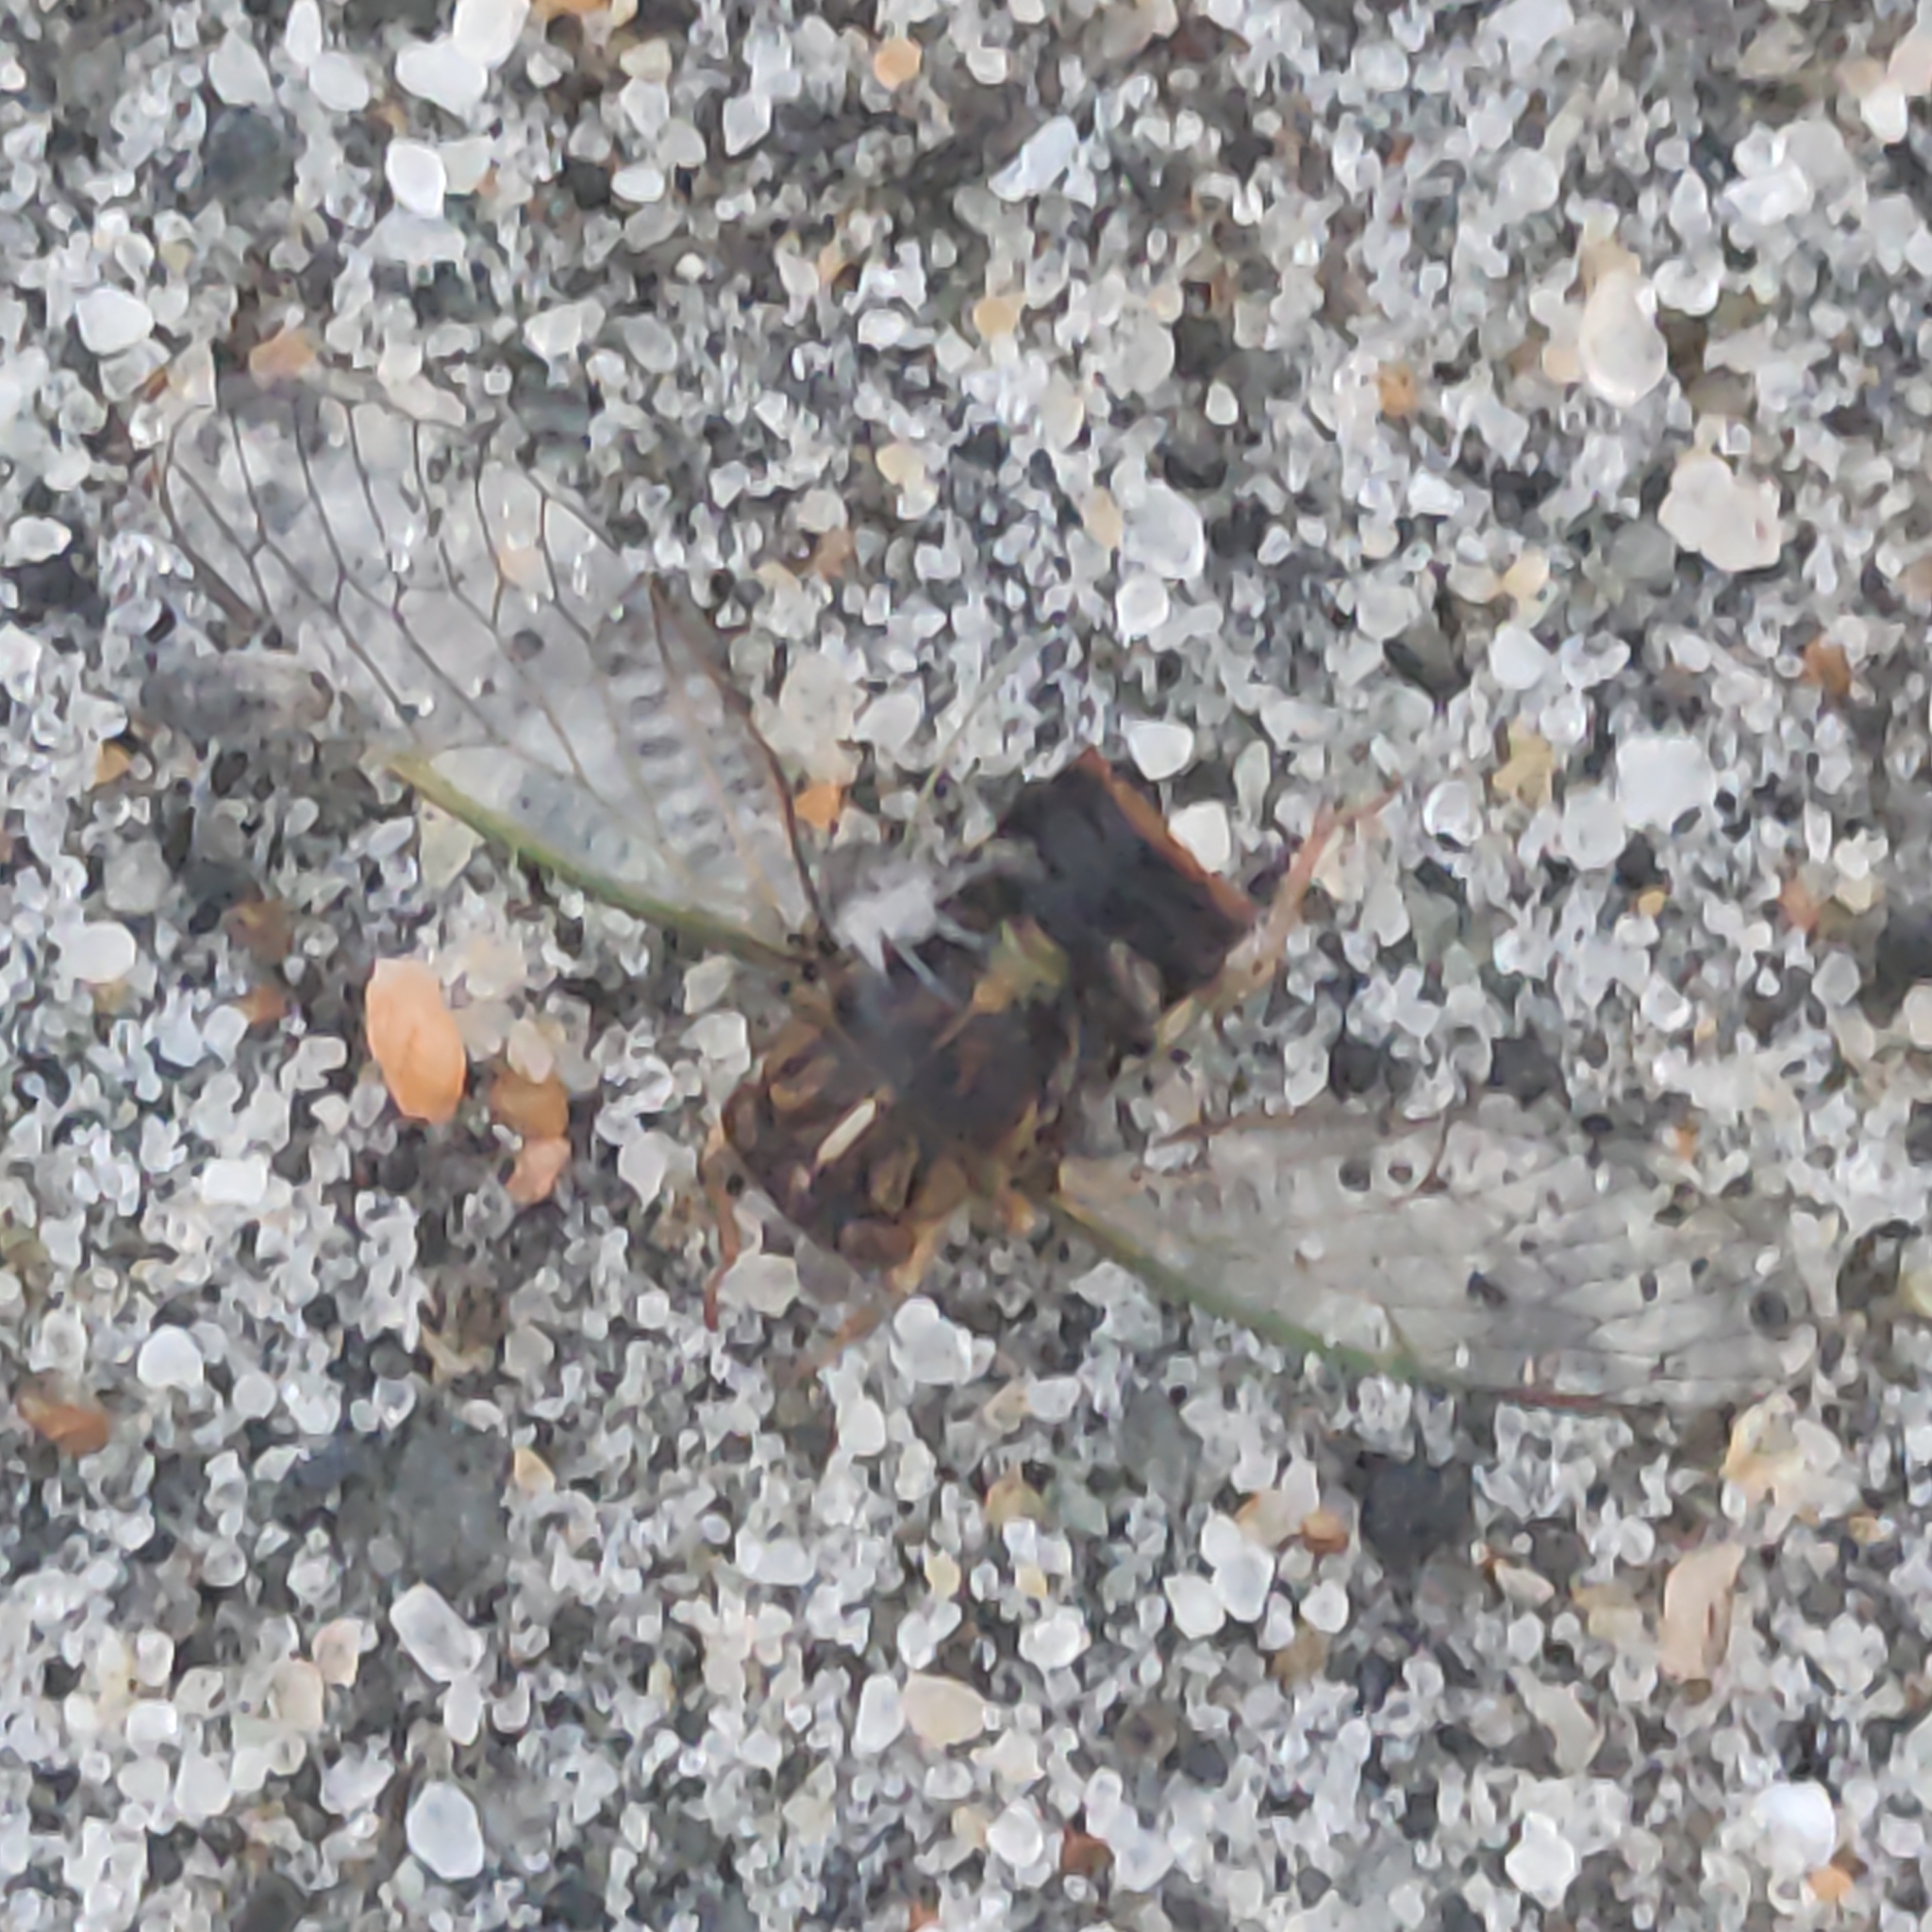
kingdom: Animalia
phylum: Arthropoda
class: Insecta
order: Hemiptera
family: Cicadidae
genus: Rhodopsalta
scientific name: Rhodopsalta cruentata
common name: Blood redtail cicada
